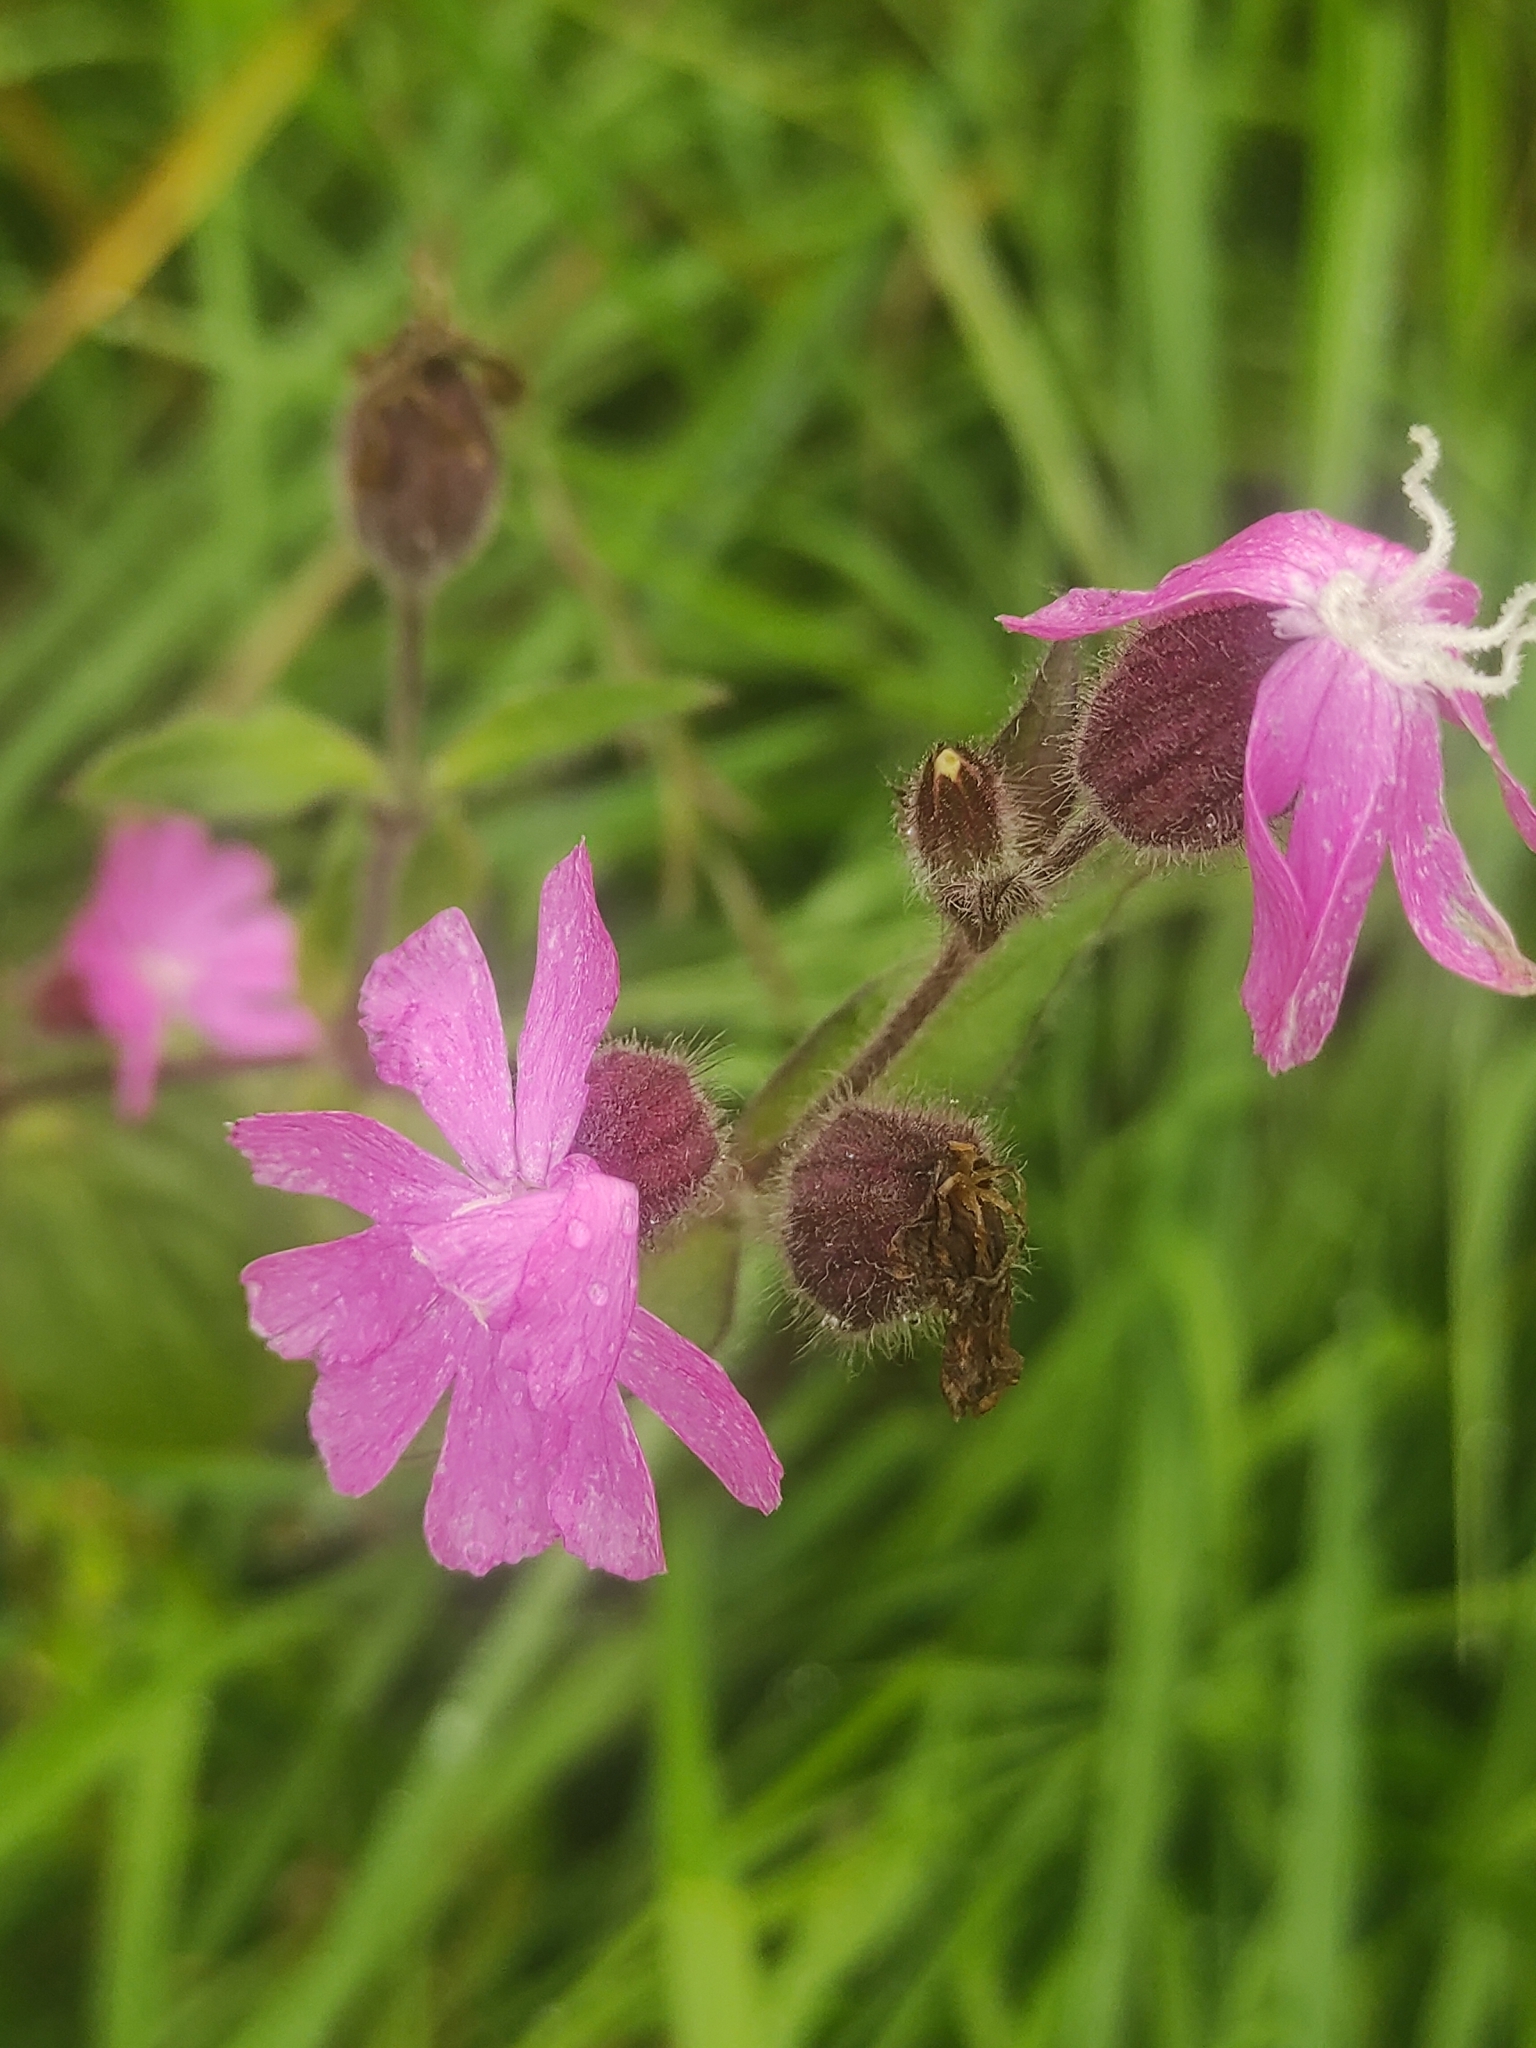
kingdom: Plantae
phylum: Tracheophyta
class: Magnoliopsida
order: Caryophyllales
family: Caryophyllaceae
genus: Silene
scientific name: Silene dioica
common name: Red campion
